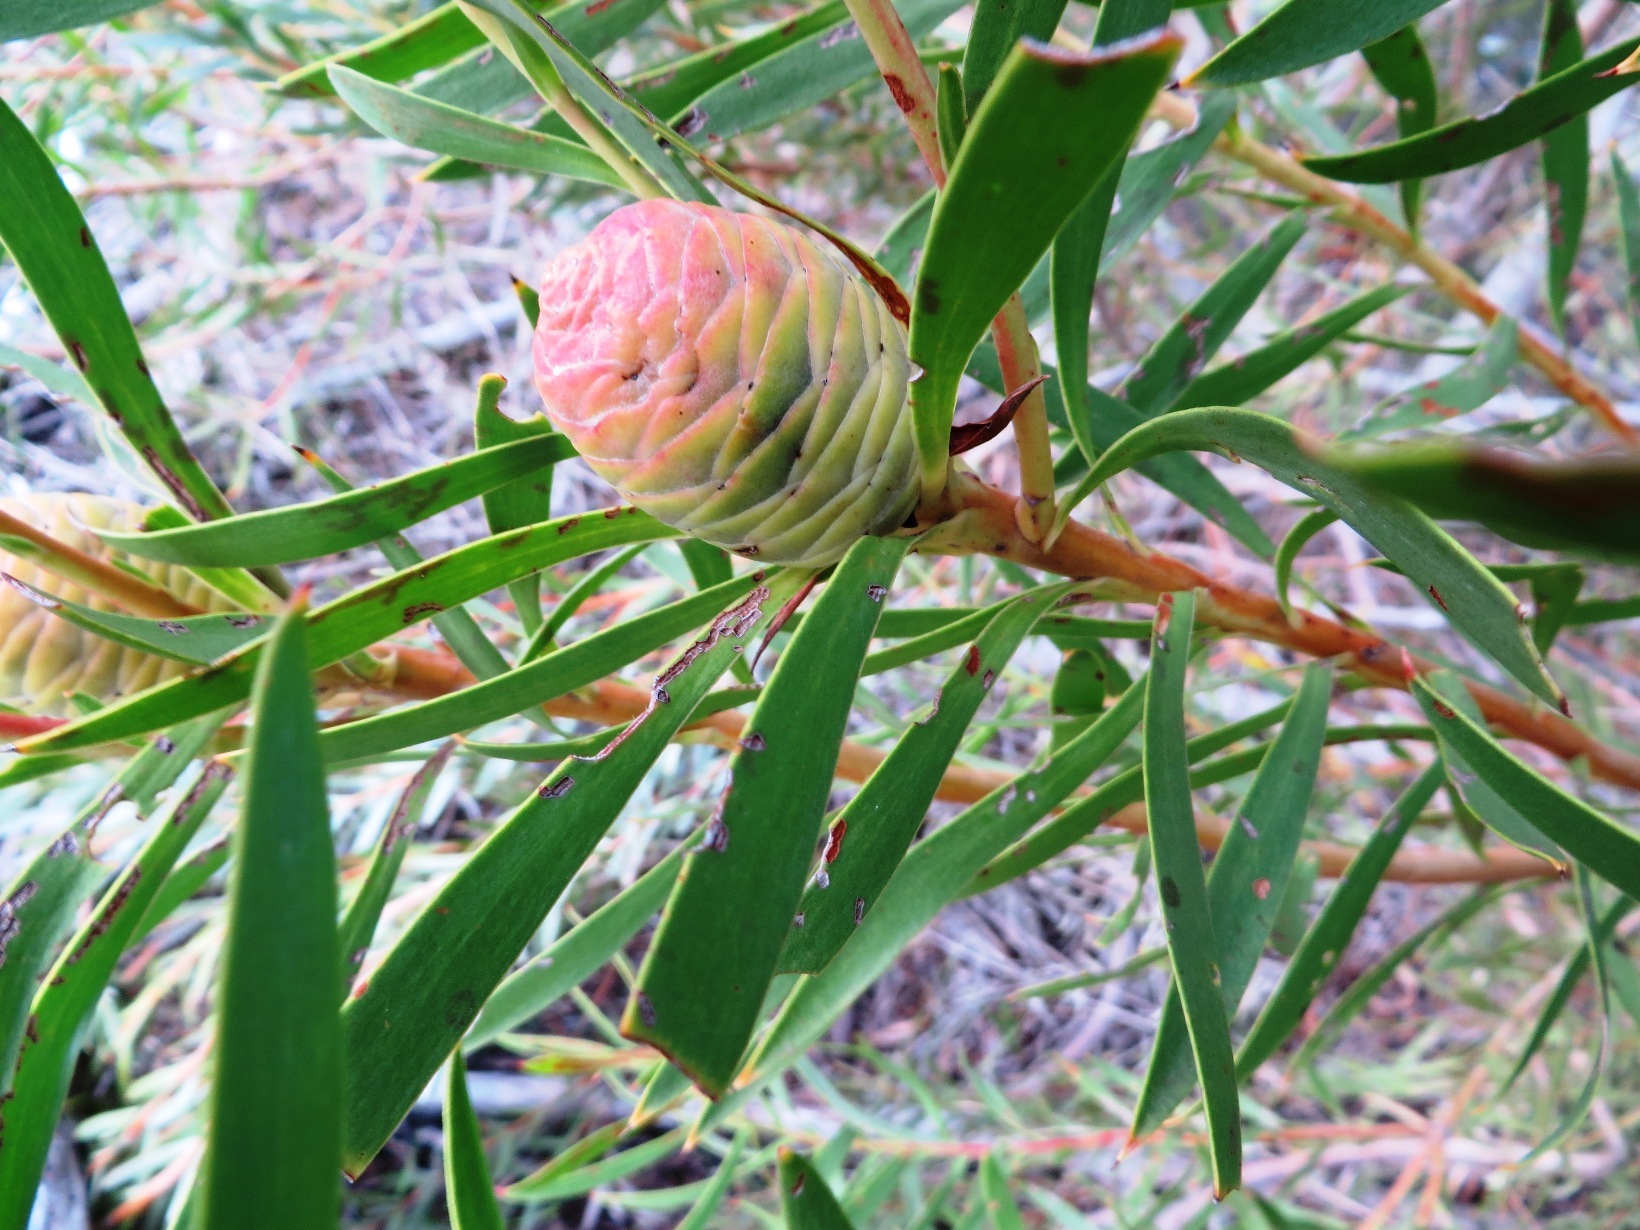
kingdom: Plantae
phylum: Tracheophyta
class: Magnoliopsida
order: Proteales
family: Proteaceae
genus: Leucadendron
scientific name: Leucadendron coniferum
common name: Dune conebush
